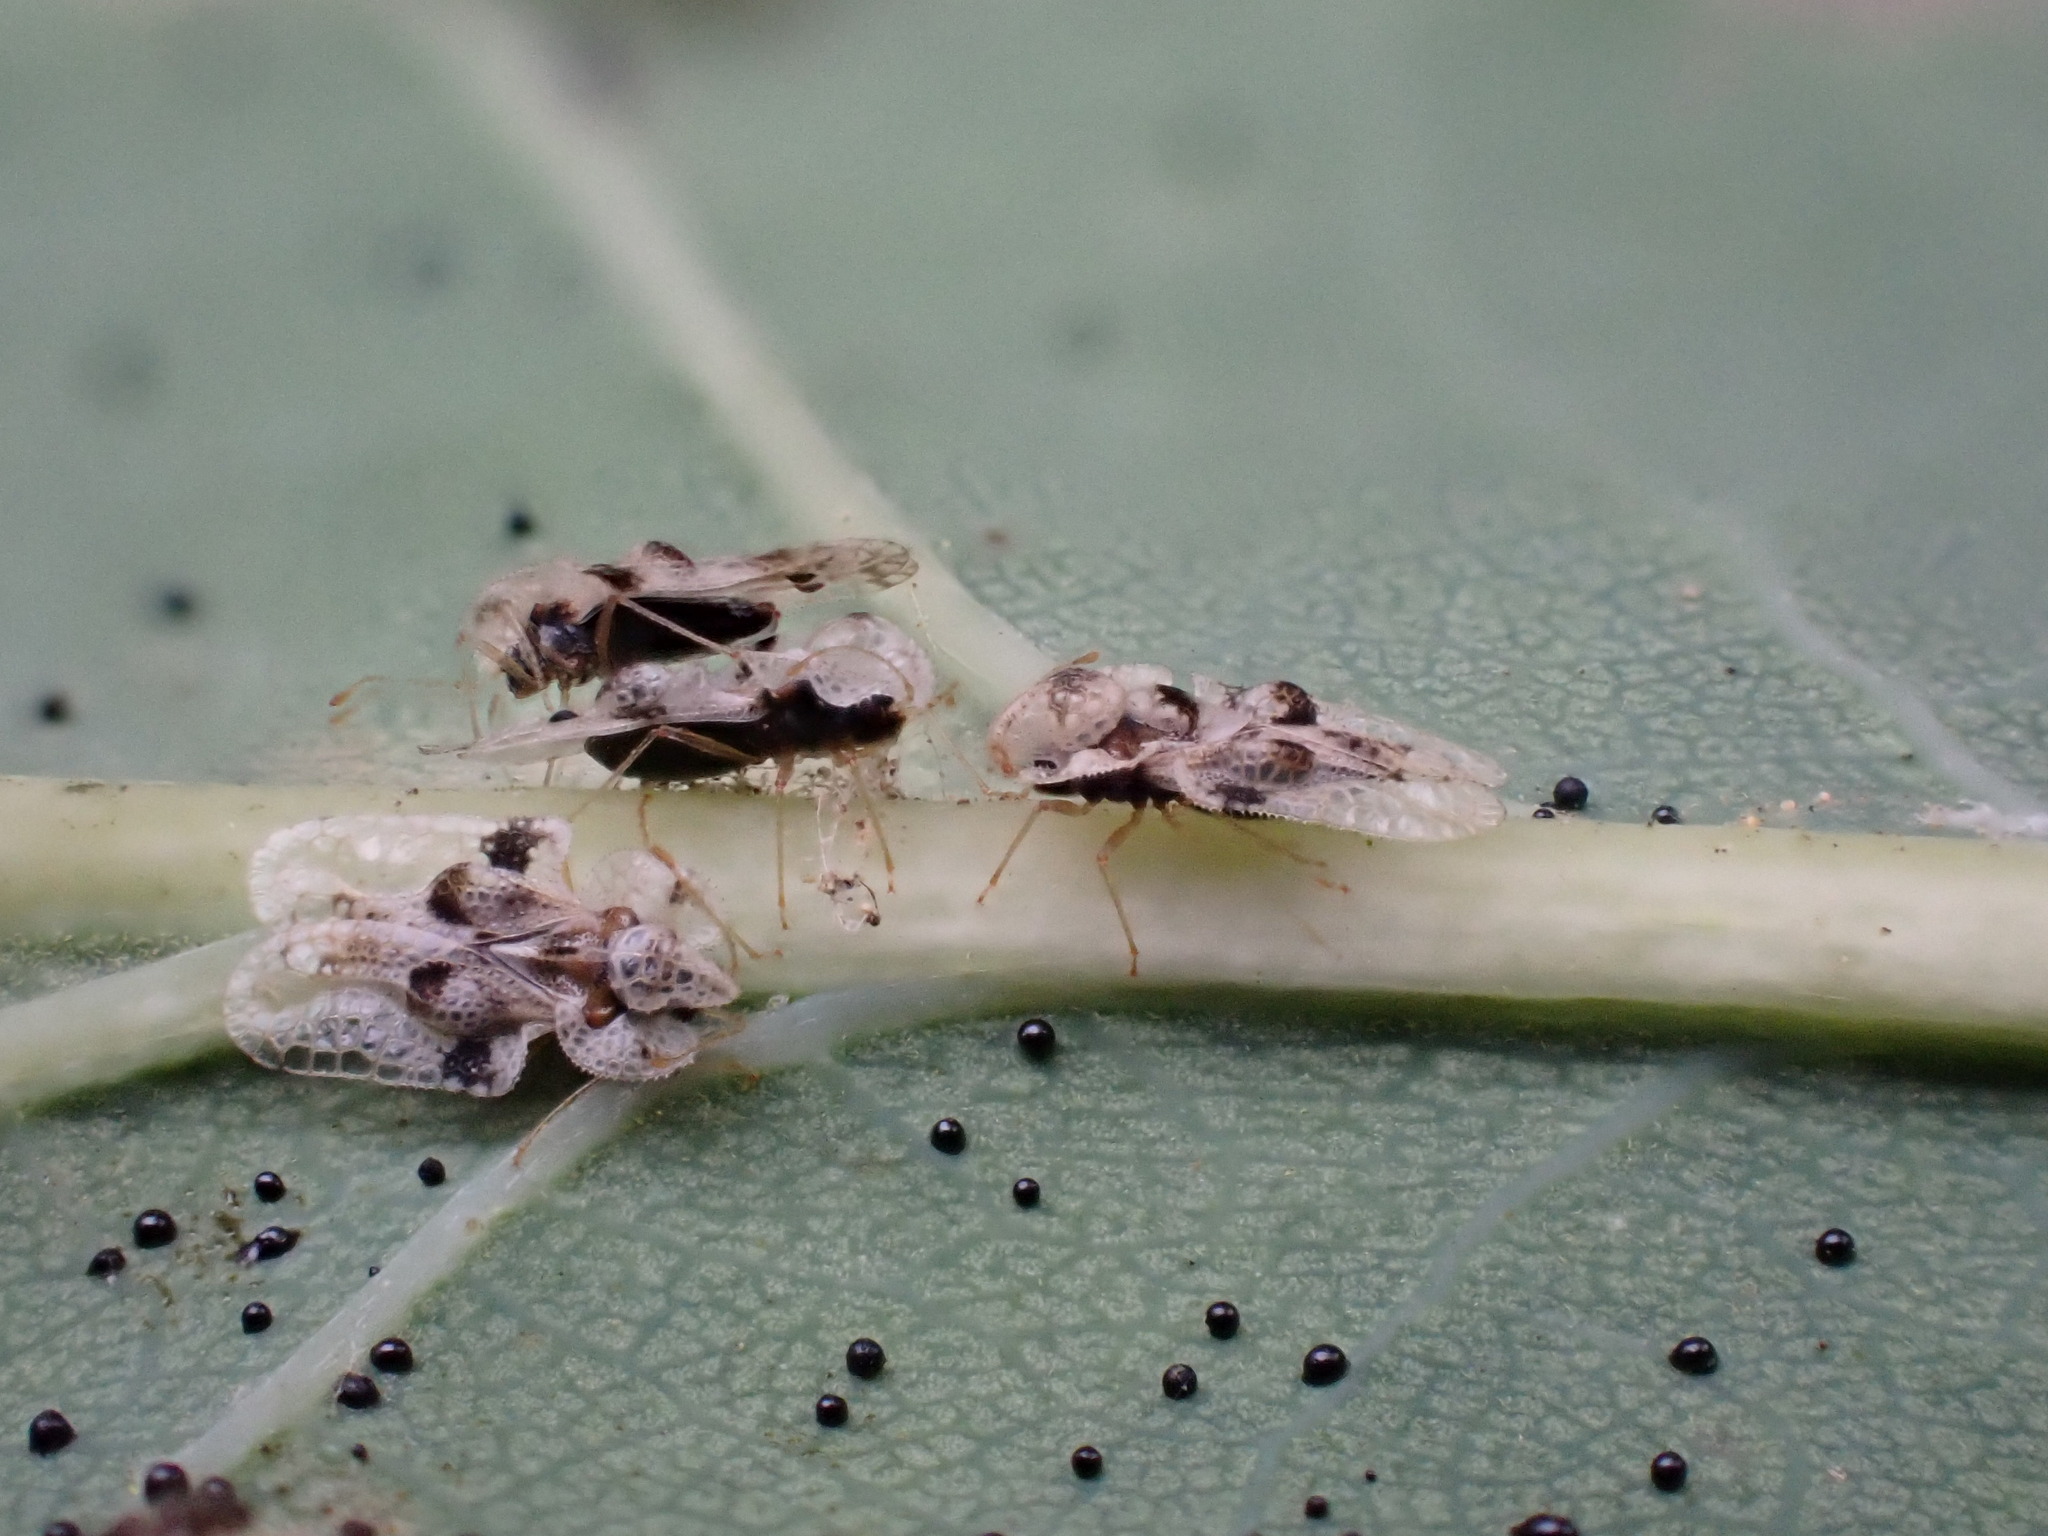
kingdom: Animalia
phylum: Arthropoda
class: Insecta
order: Hemiptera
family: Tingidae
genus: Corythucha
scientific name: Corythucha arcuata
